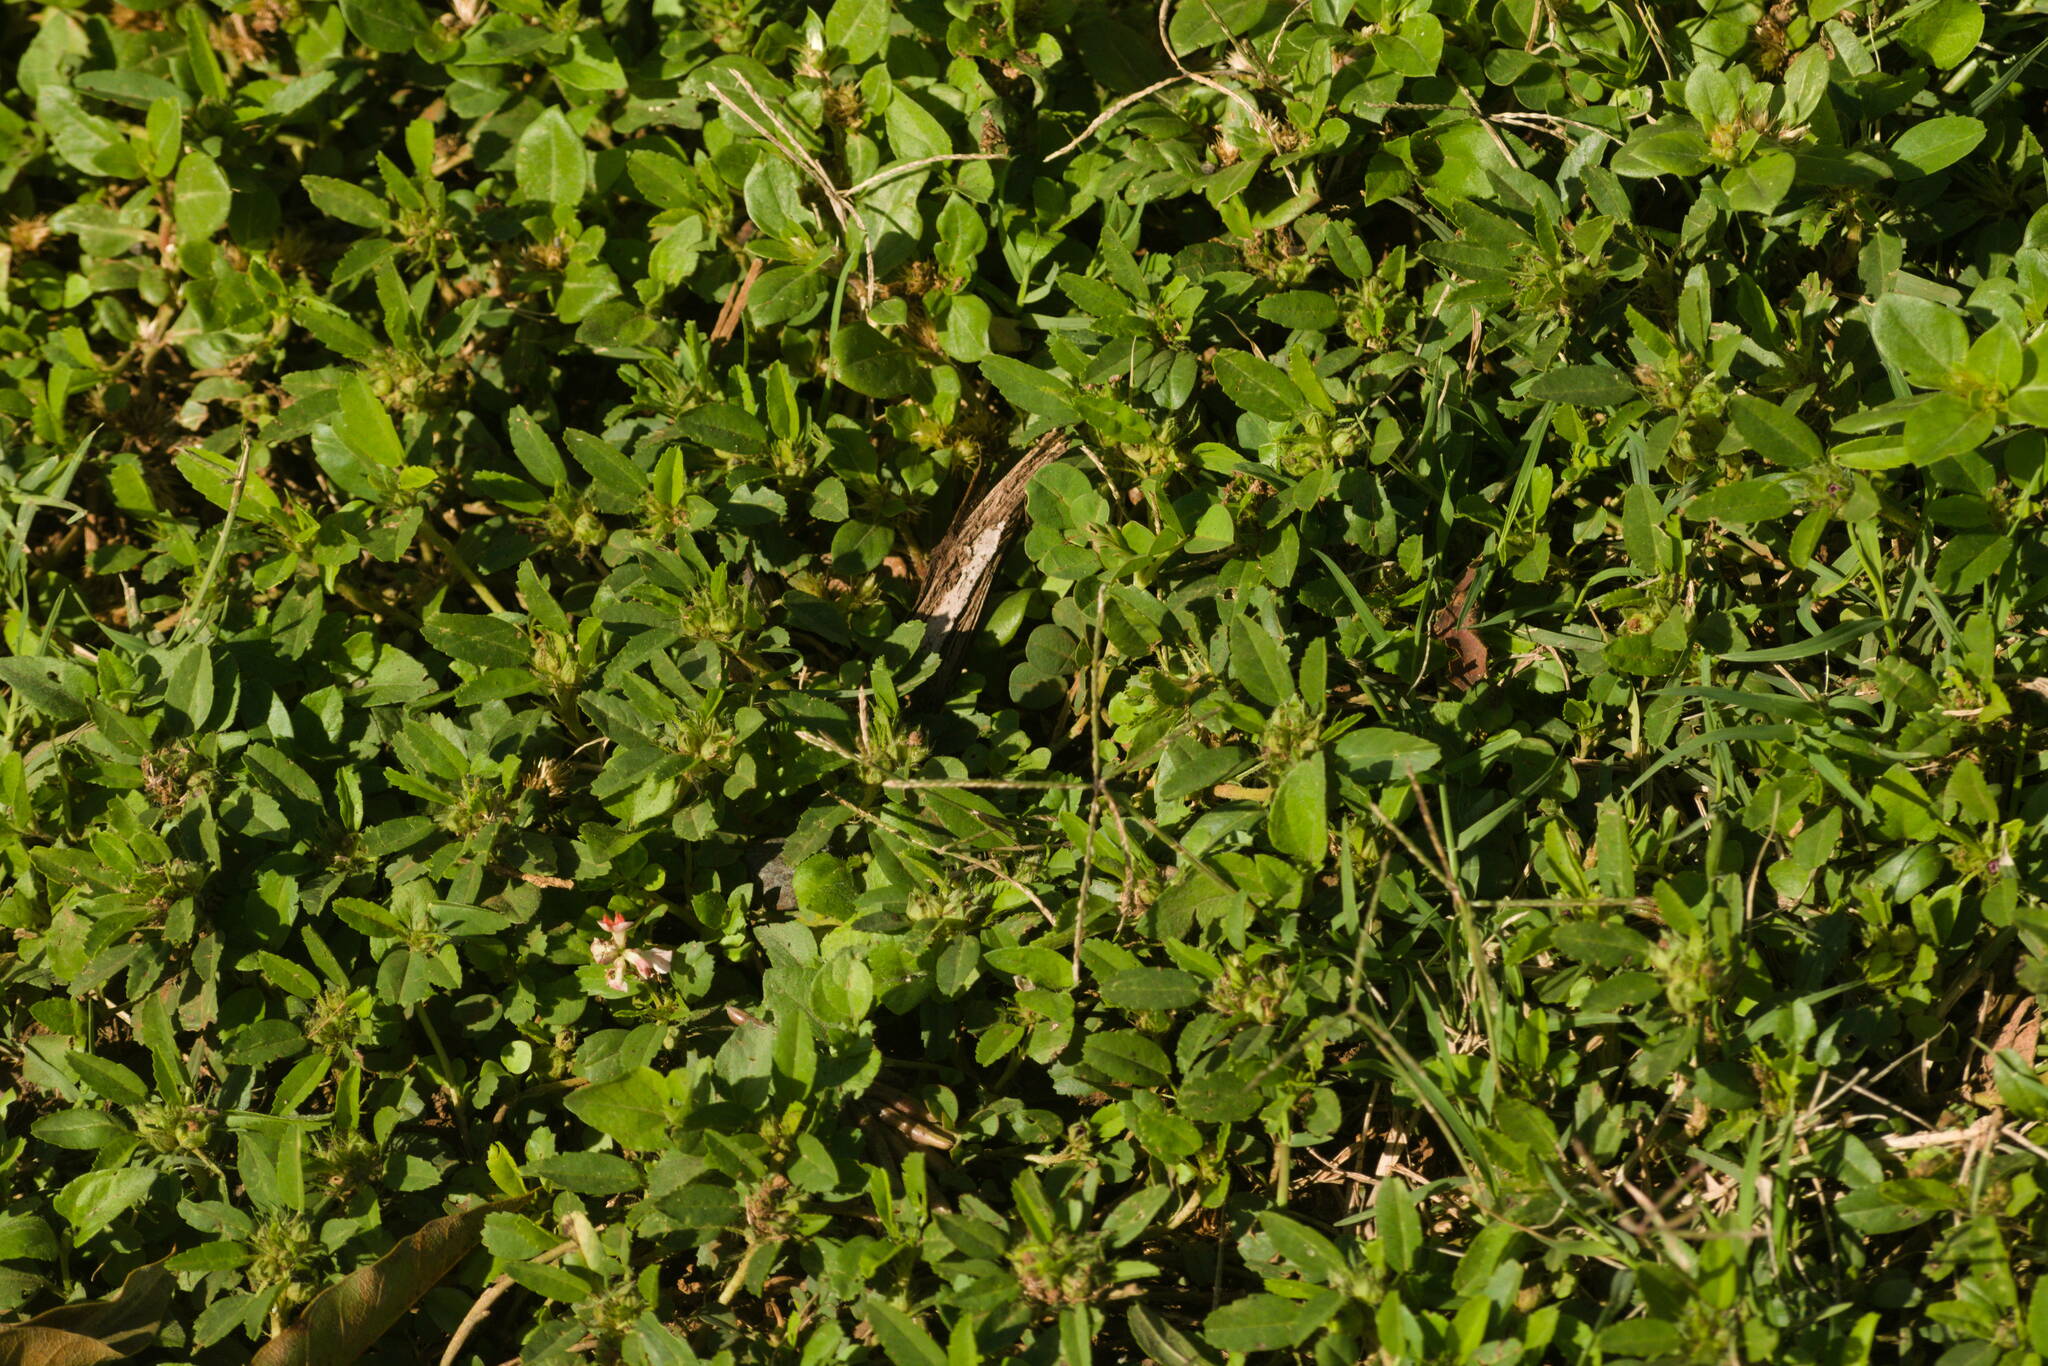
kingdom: Plantae
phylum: Tracheophyta
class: Magnoliopsida
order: Malvales
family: Malvaceae
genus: Sida
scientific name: Sida ciliaris
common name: Bracted fanpetals
